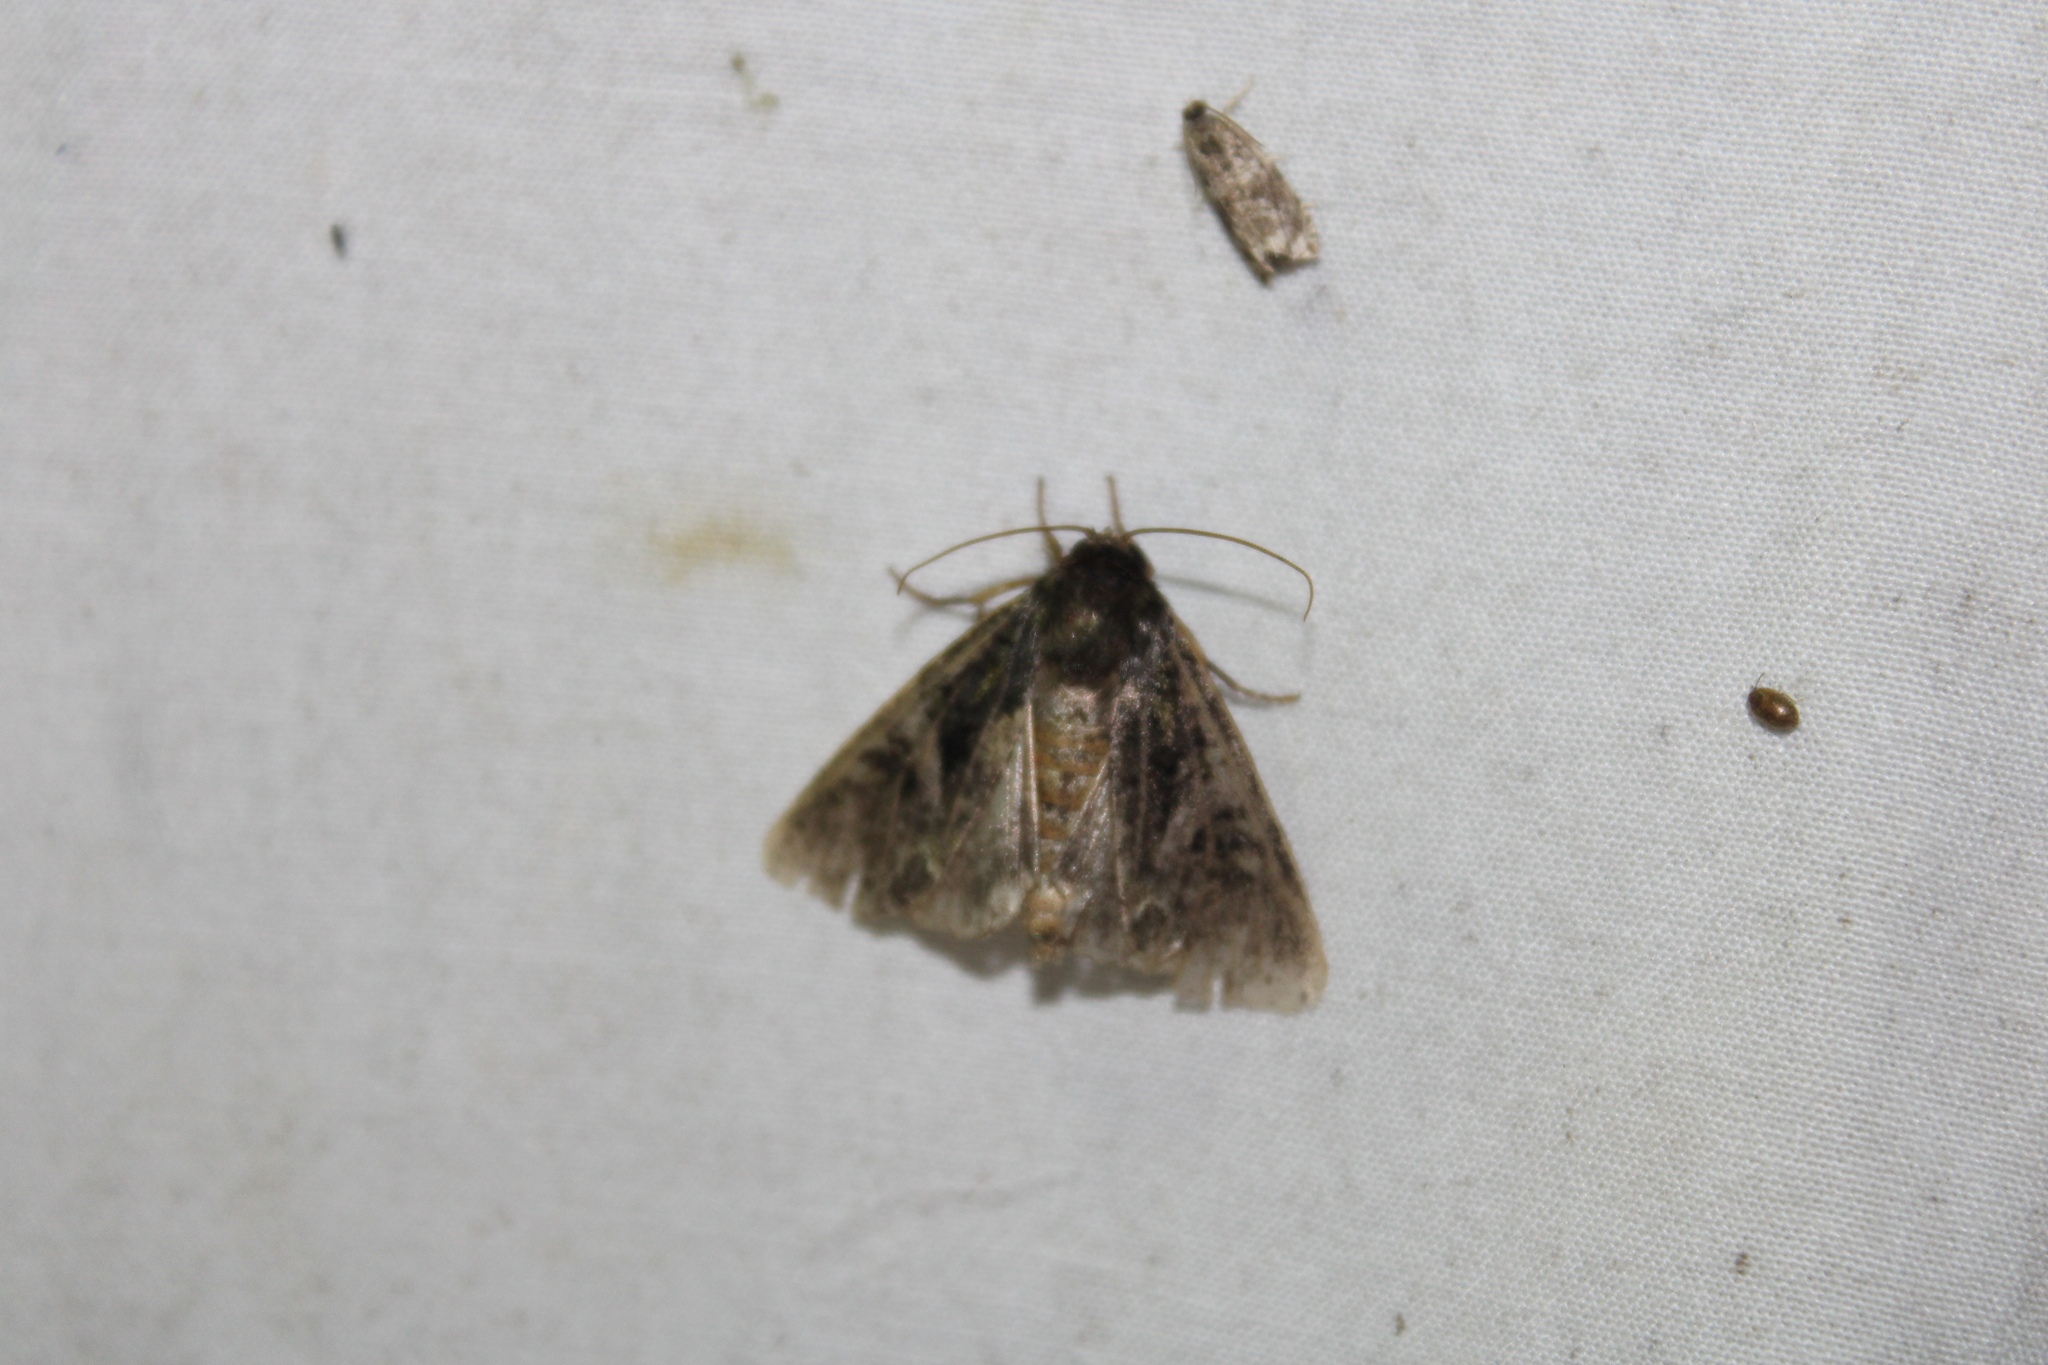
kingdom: Animalia
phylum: Arthropoda
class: Insecta
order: Lepidoptera
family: Noctuidae
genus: Trachea
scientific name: Trachea delicata
